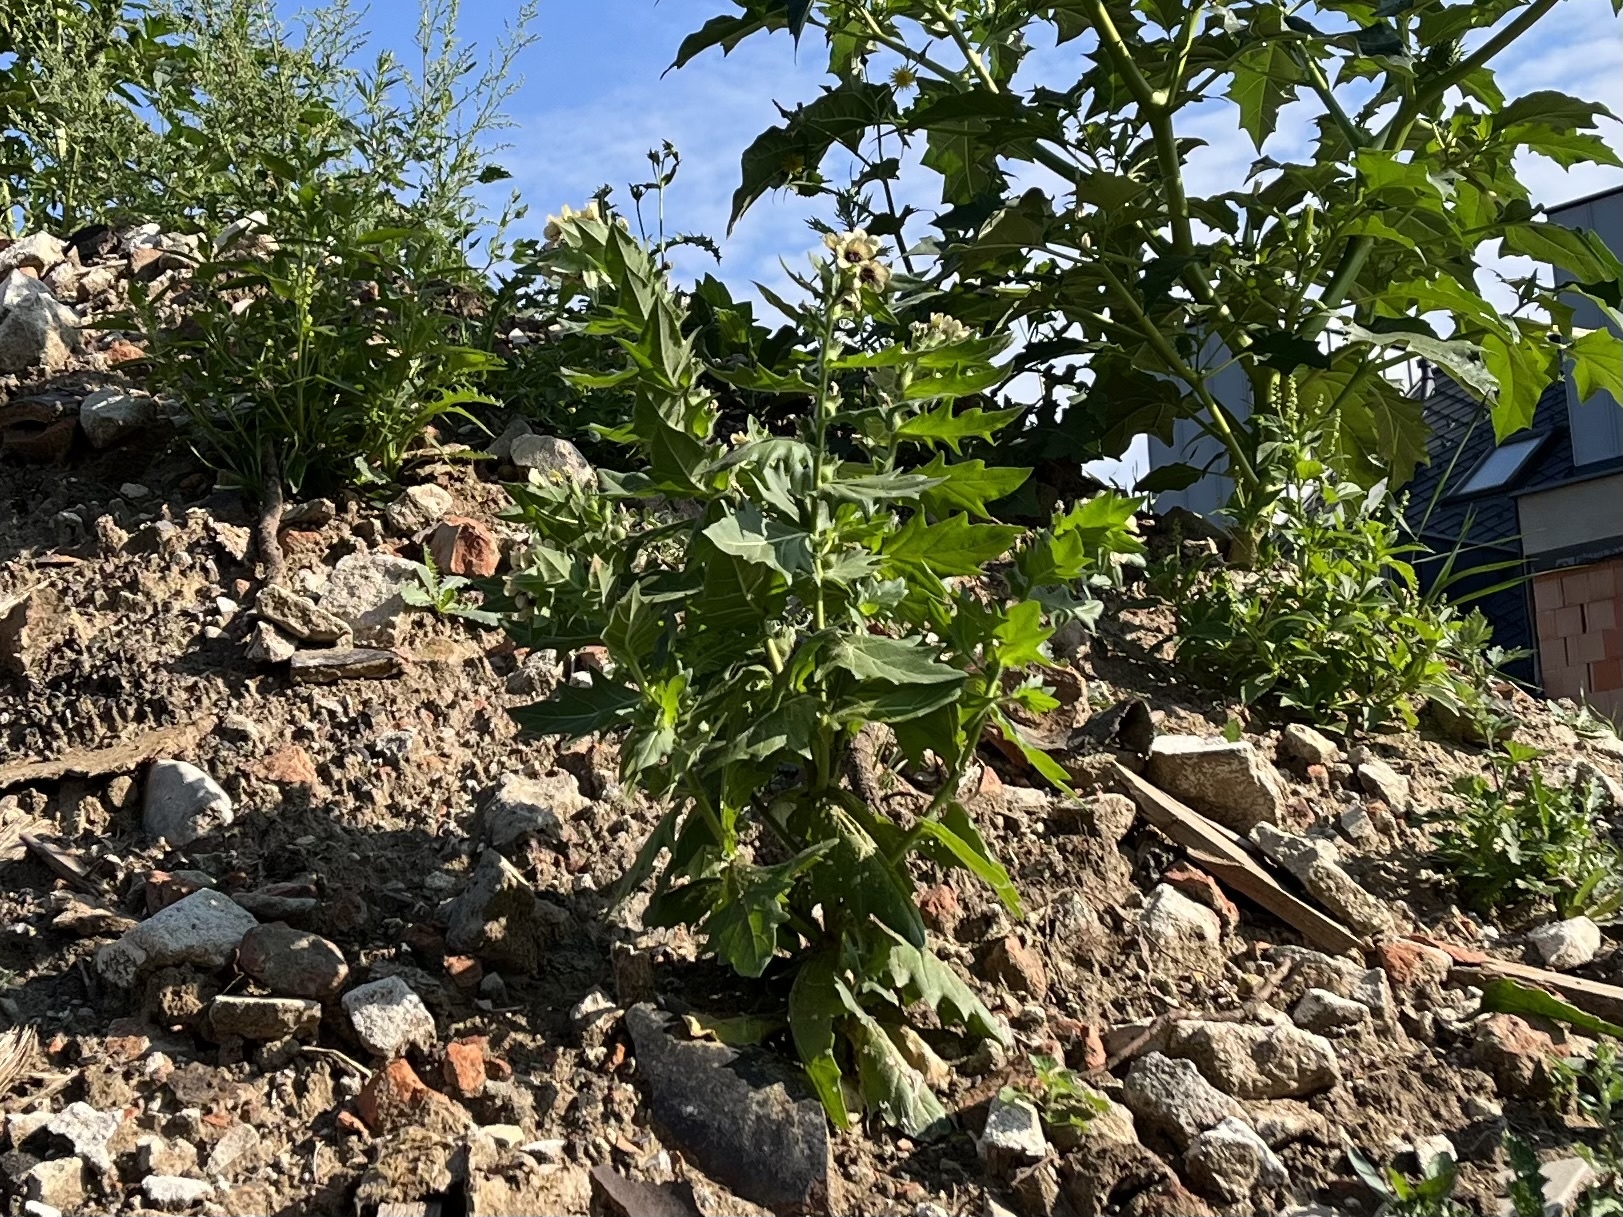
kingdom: Plantae
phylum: Tracheophyta
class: Magnoliopsida
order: Solanales
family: Solanaceae
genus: Hyoscyamus
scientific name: Hyoscyamus niger
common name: Henbane
